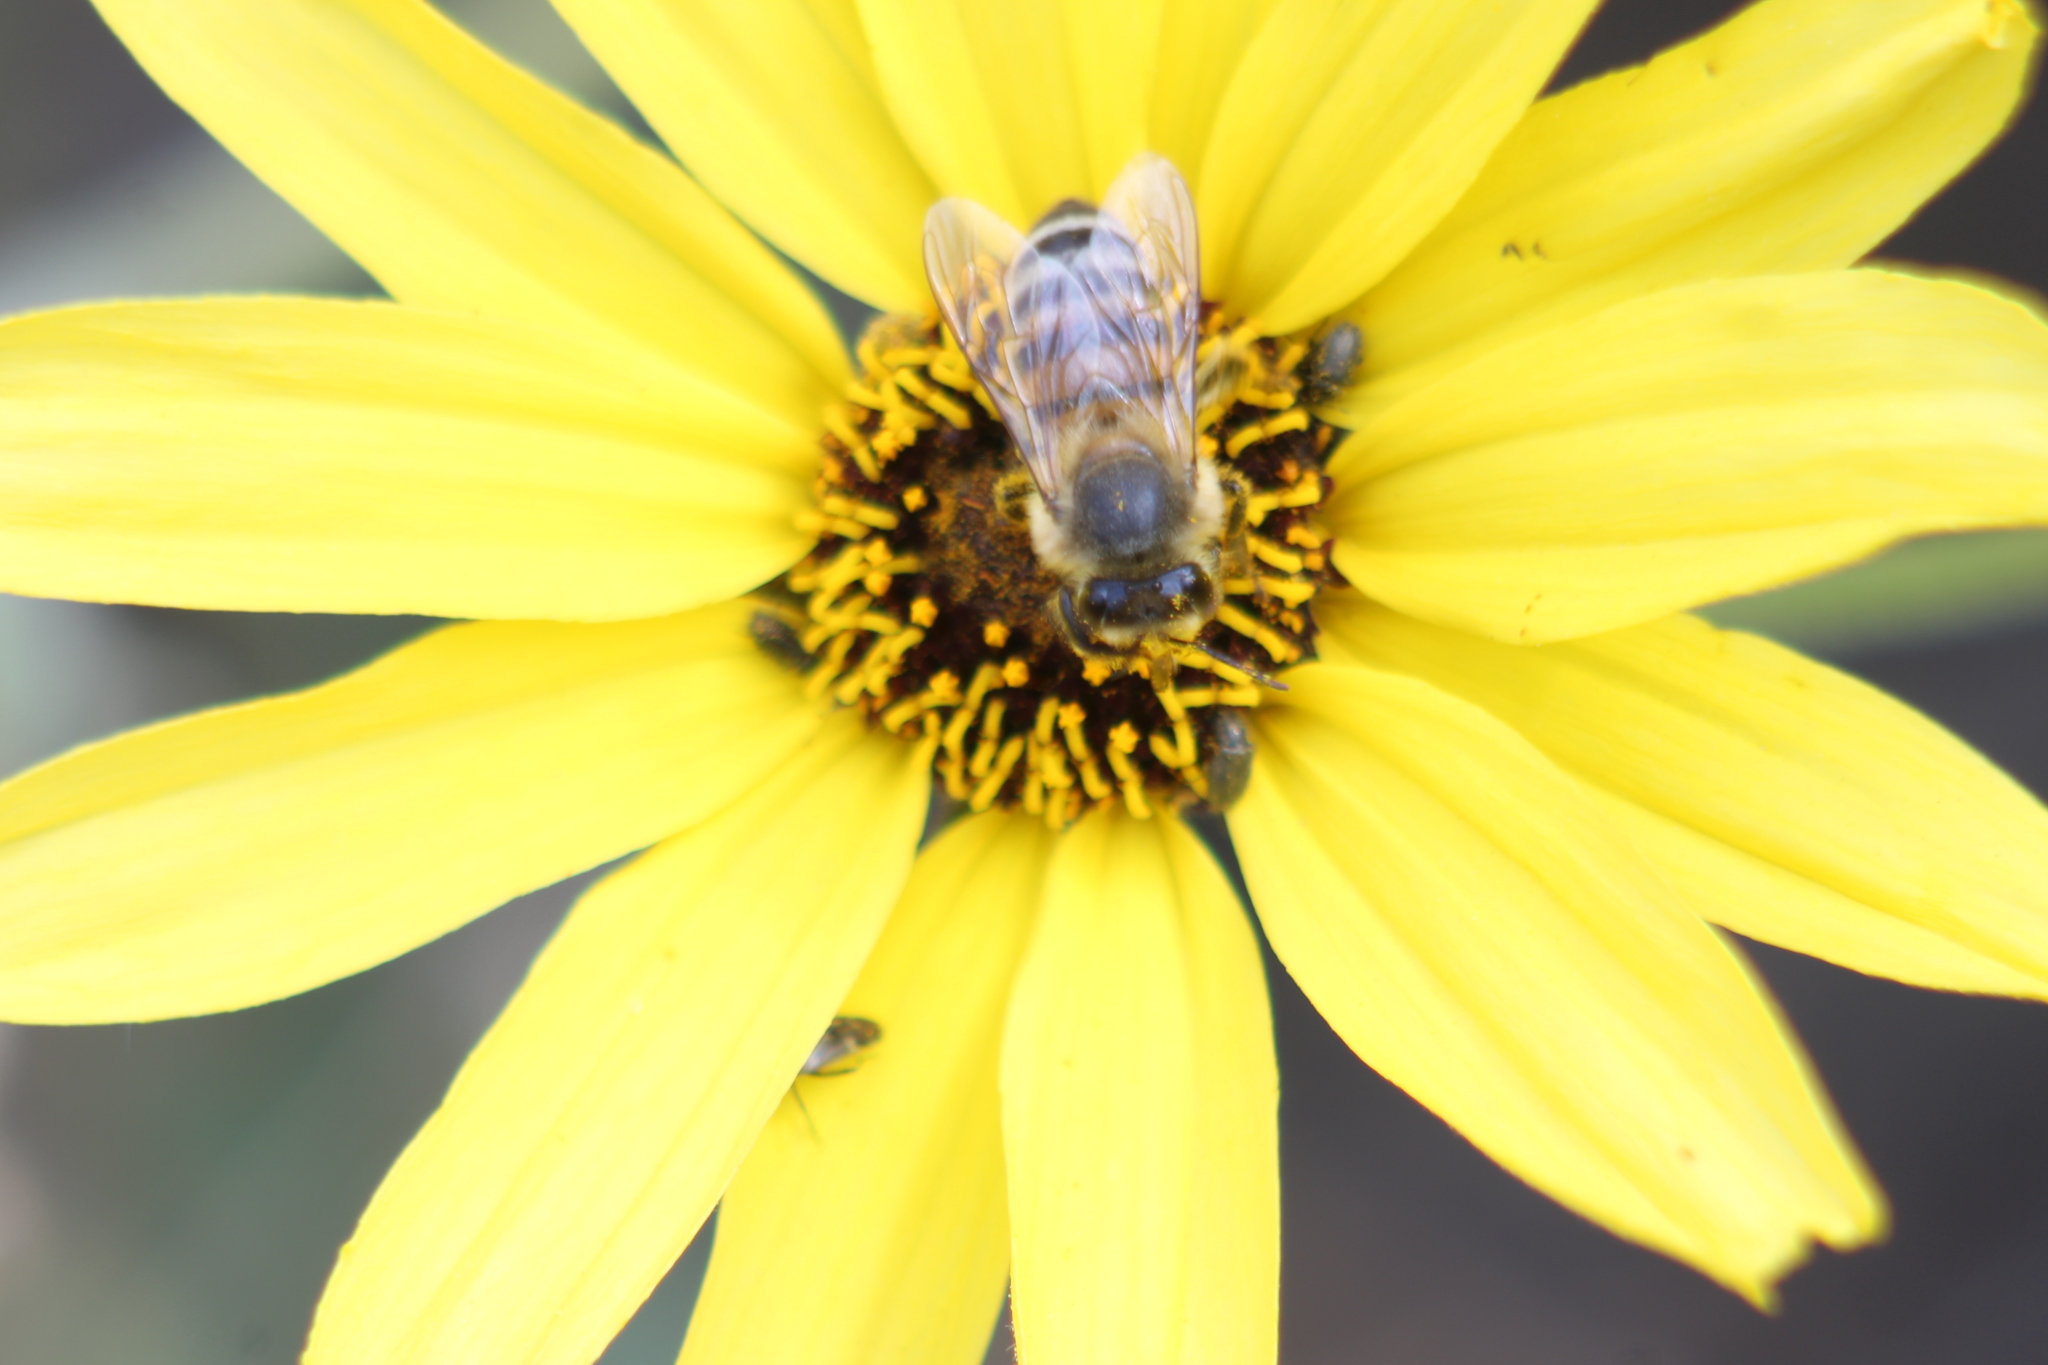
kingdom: Animalia
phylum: Arthropoda
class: Insecta
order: Hymenoptera
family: Apidae
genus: Apis
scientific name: Apis mellifera
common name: Honey bee
